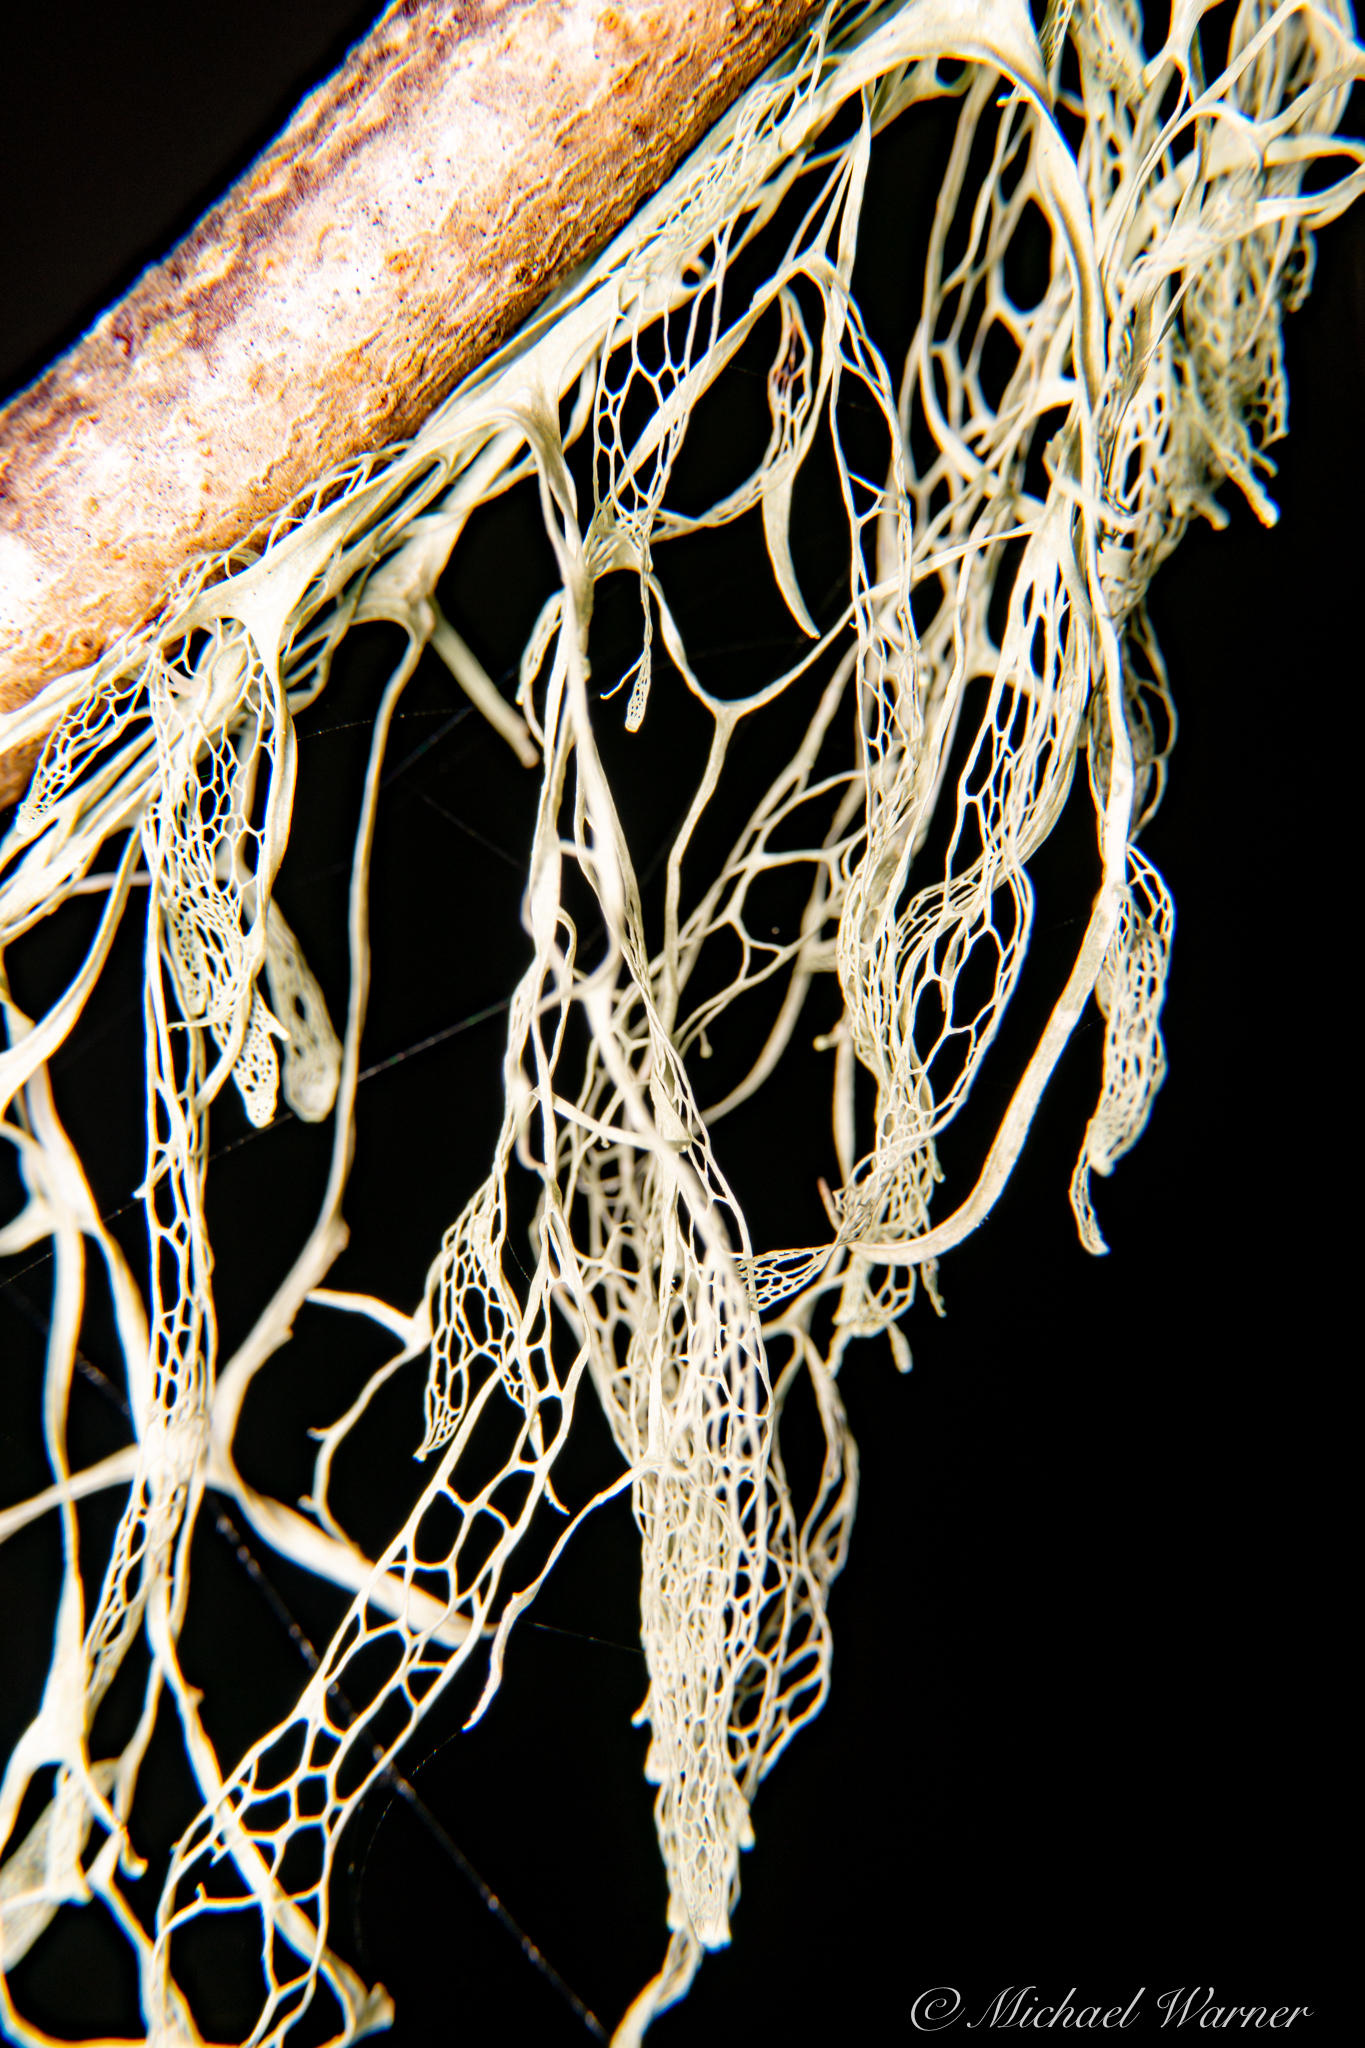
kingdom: Fungi
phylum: Ascomycota
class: Lecanoromycetes
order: Lecanorales
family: Ramalinaceae
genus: Ramalina
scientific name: Ramalina menziesii
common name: Lace lichen
